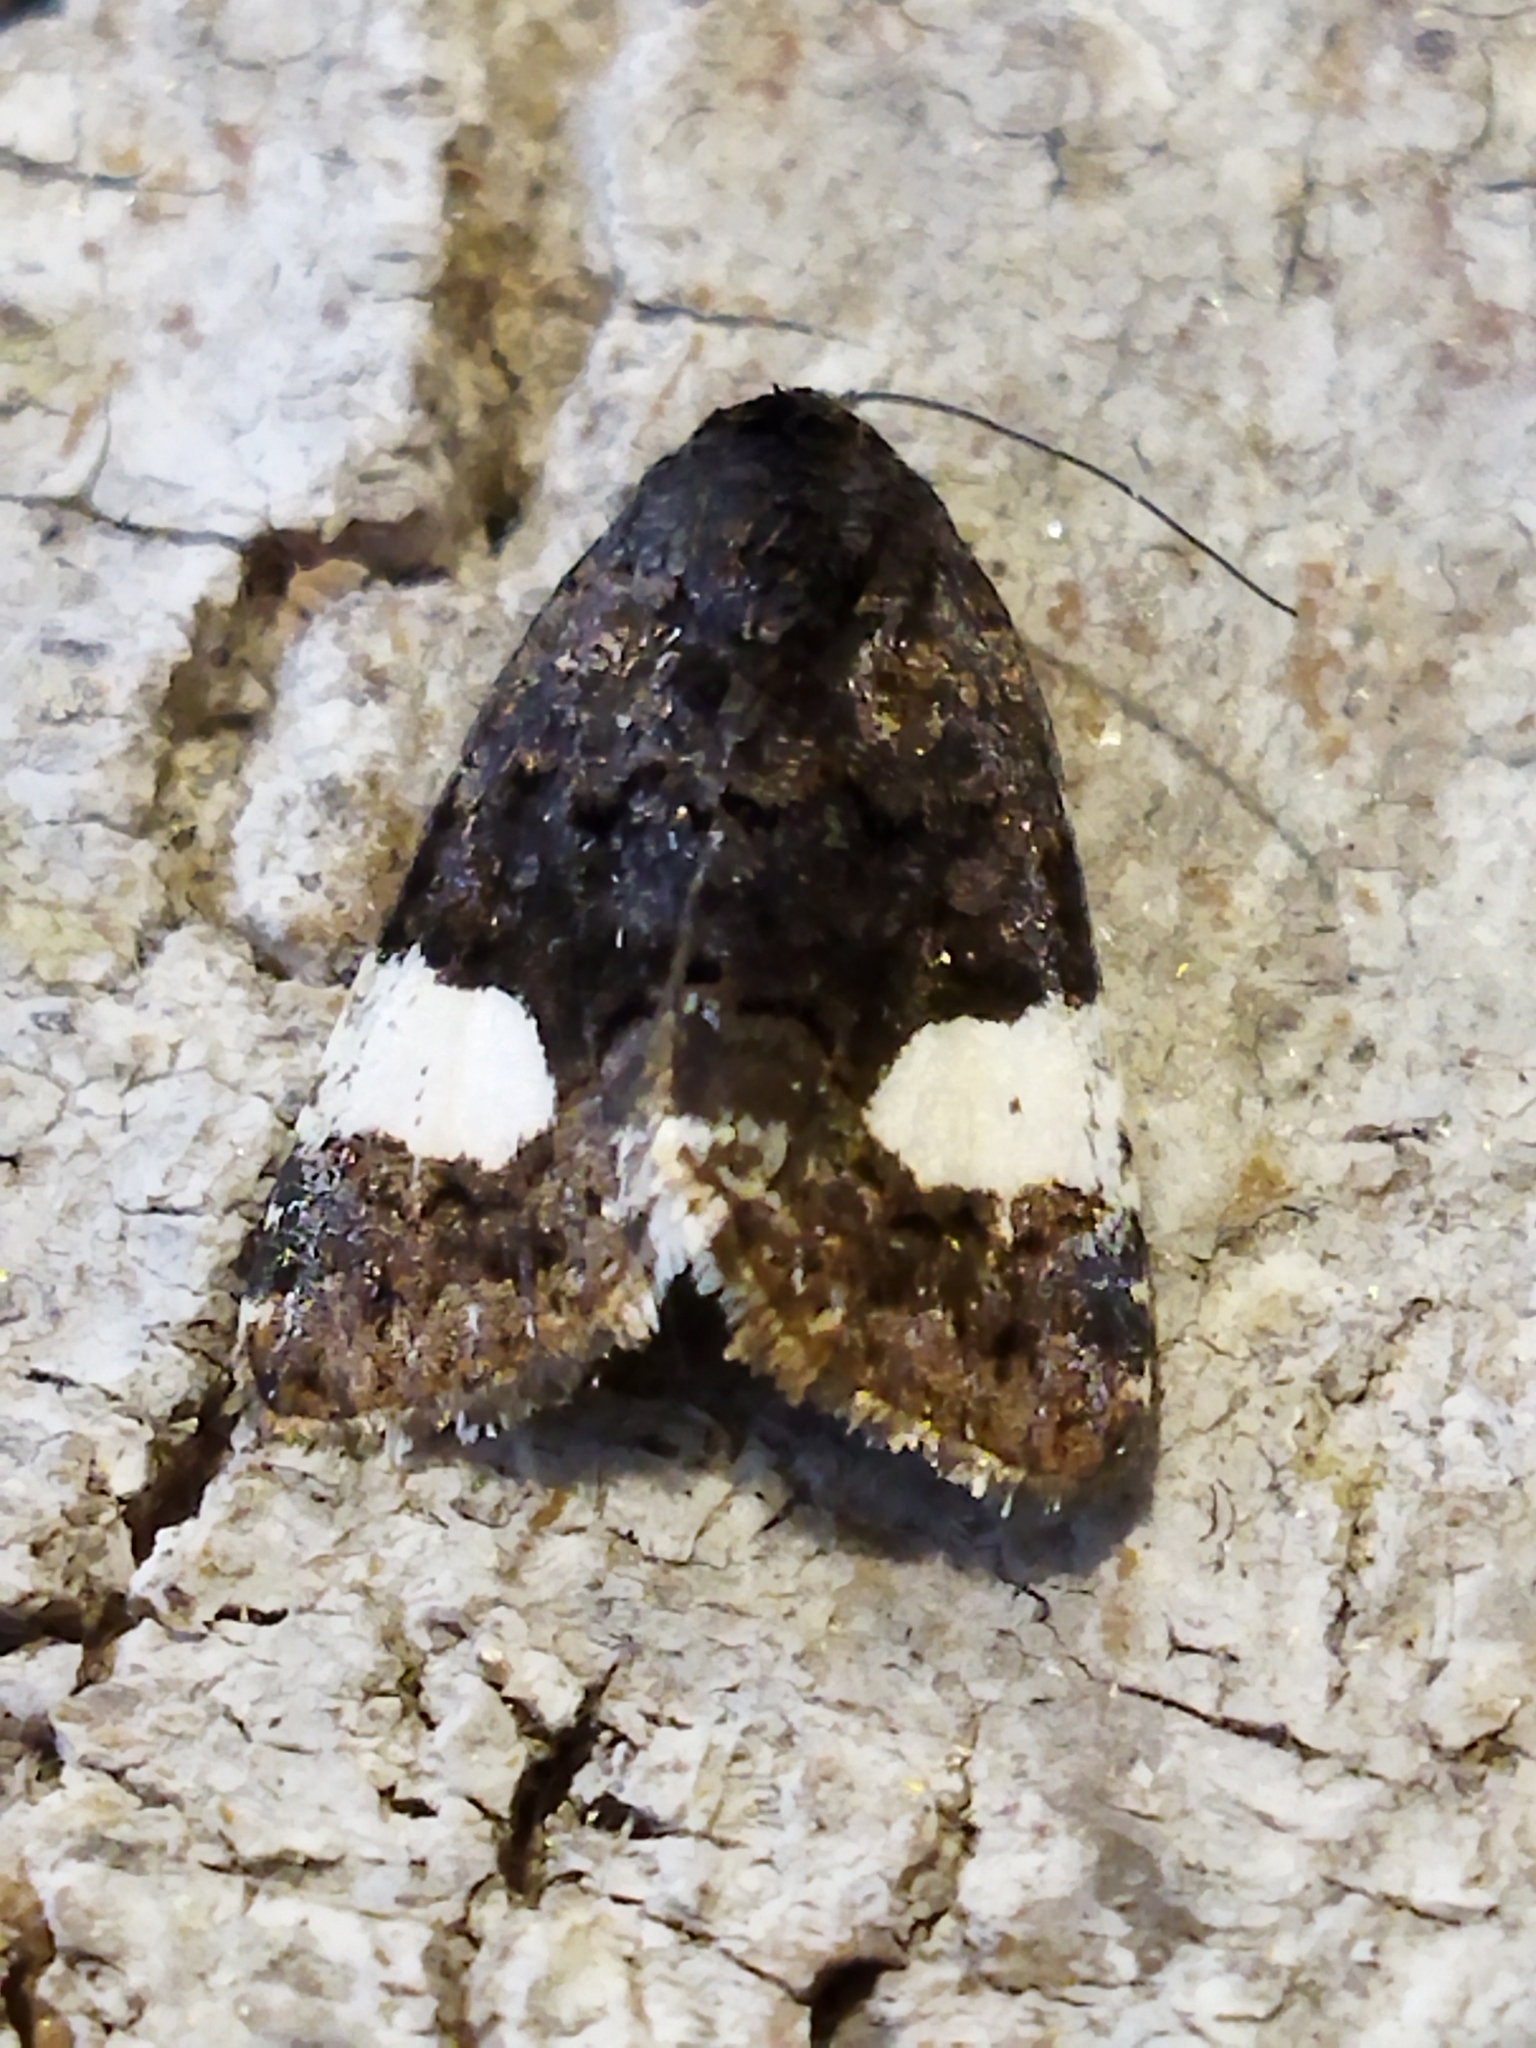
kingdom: Animalia
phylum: Arthropoda
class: Insecta
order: Lepidoptera
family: Erebidae
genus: Tyta
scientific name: Tyta luctuosa
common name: Four-spotted
